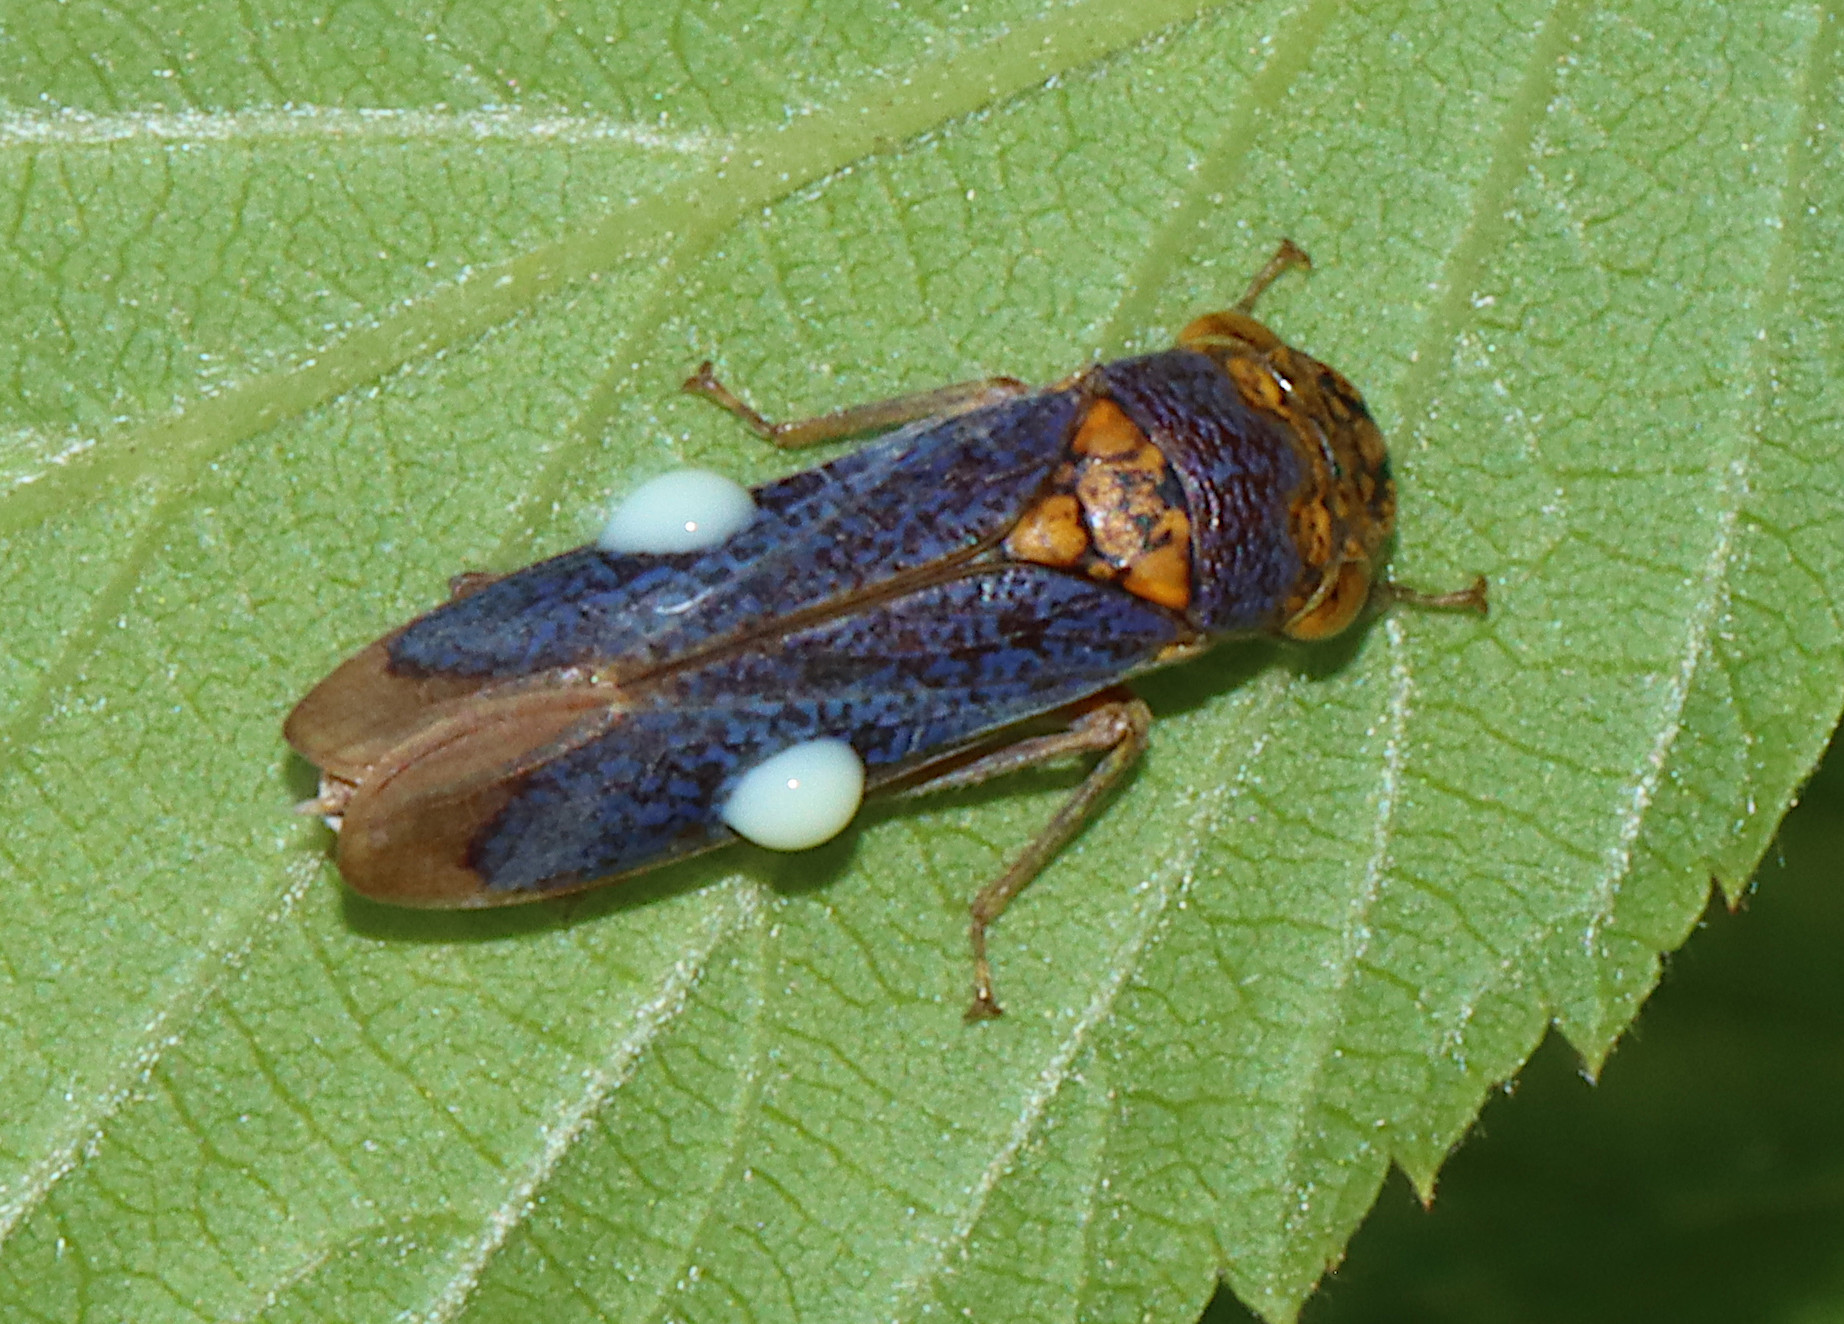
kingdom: Animalia
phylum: Arthropoda
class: Insecta
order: Hemiptera
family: Cicadellidae
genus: Oncometopia
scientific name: Oncometopia orbona
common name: Broad-headed sharpshooter
